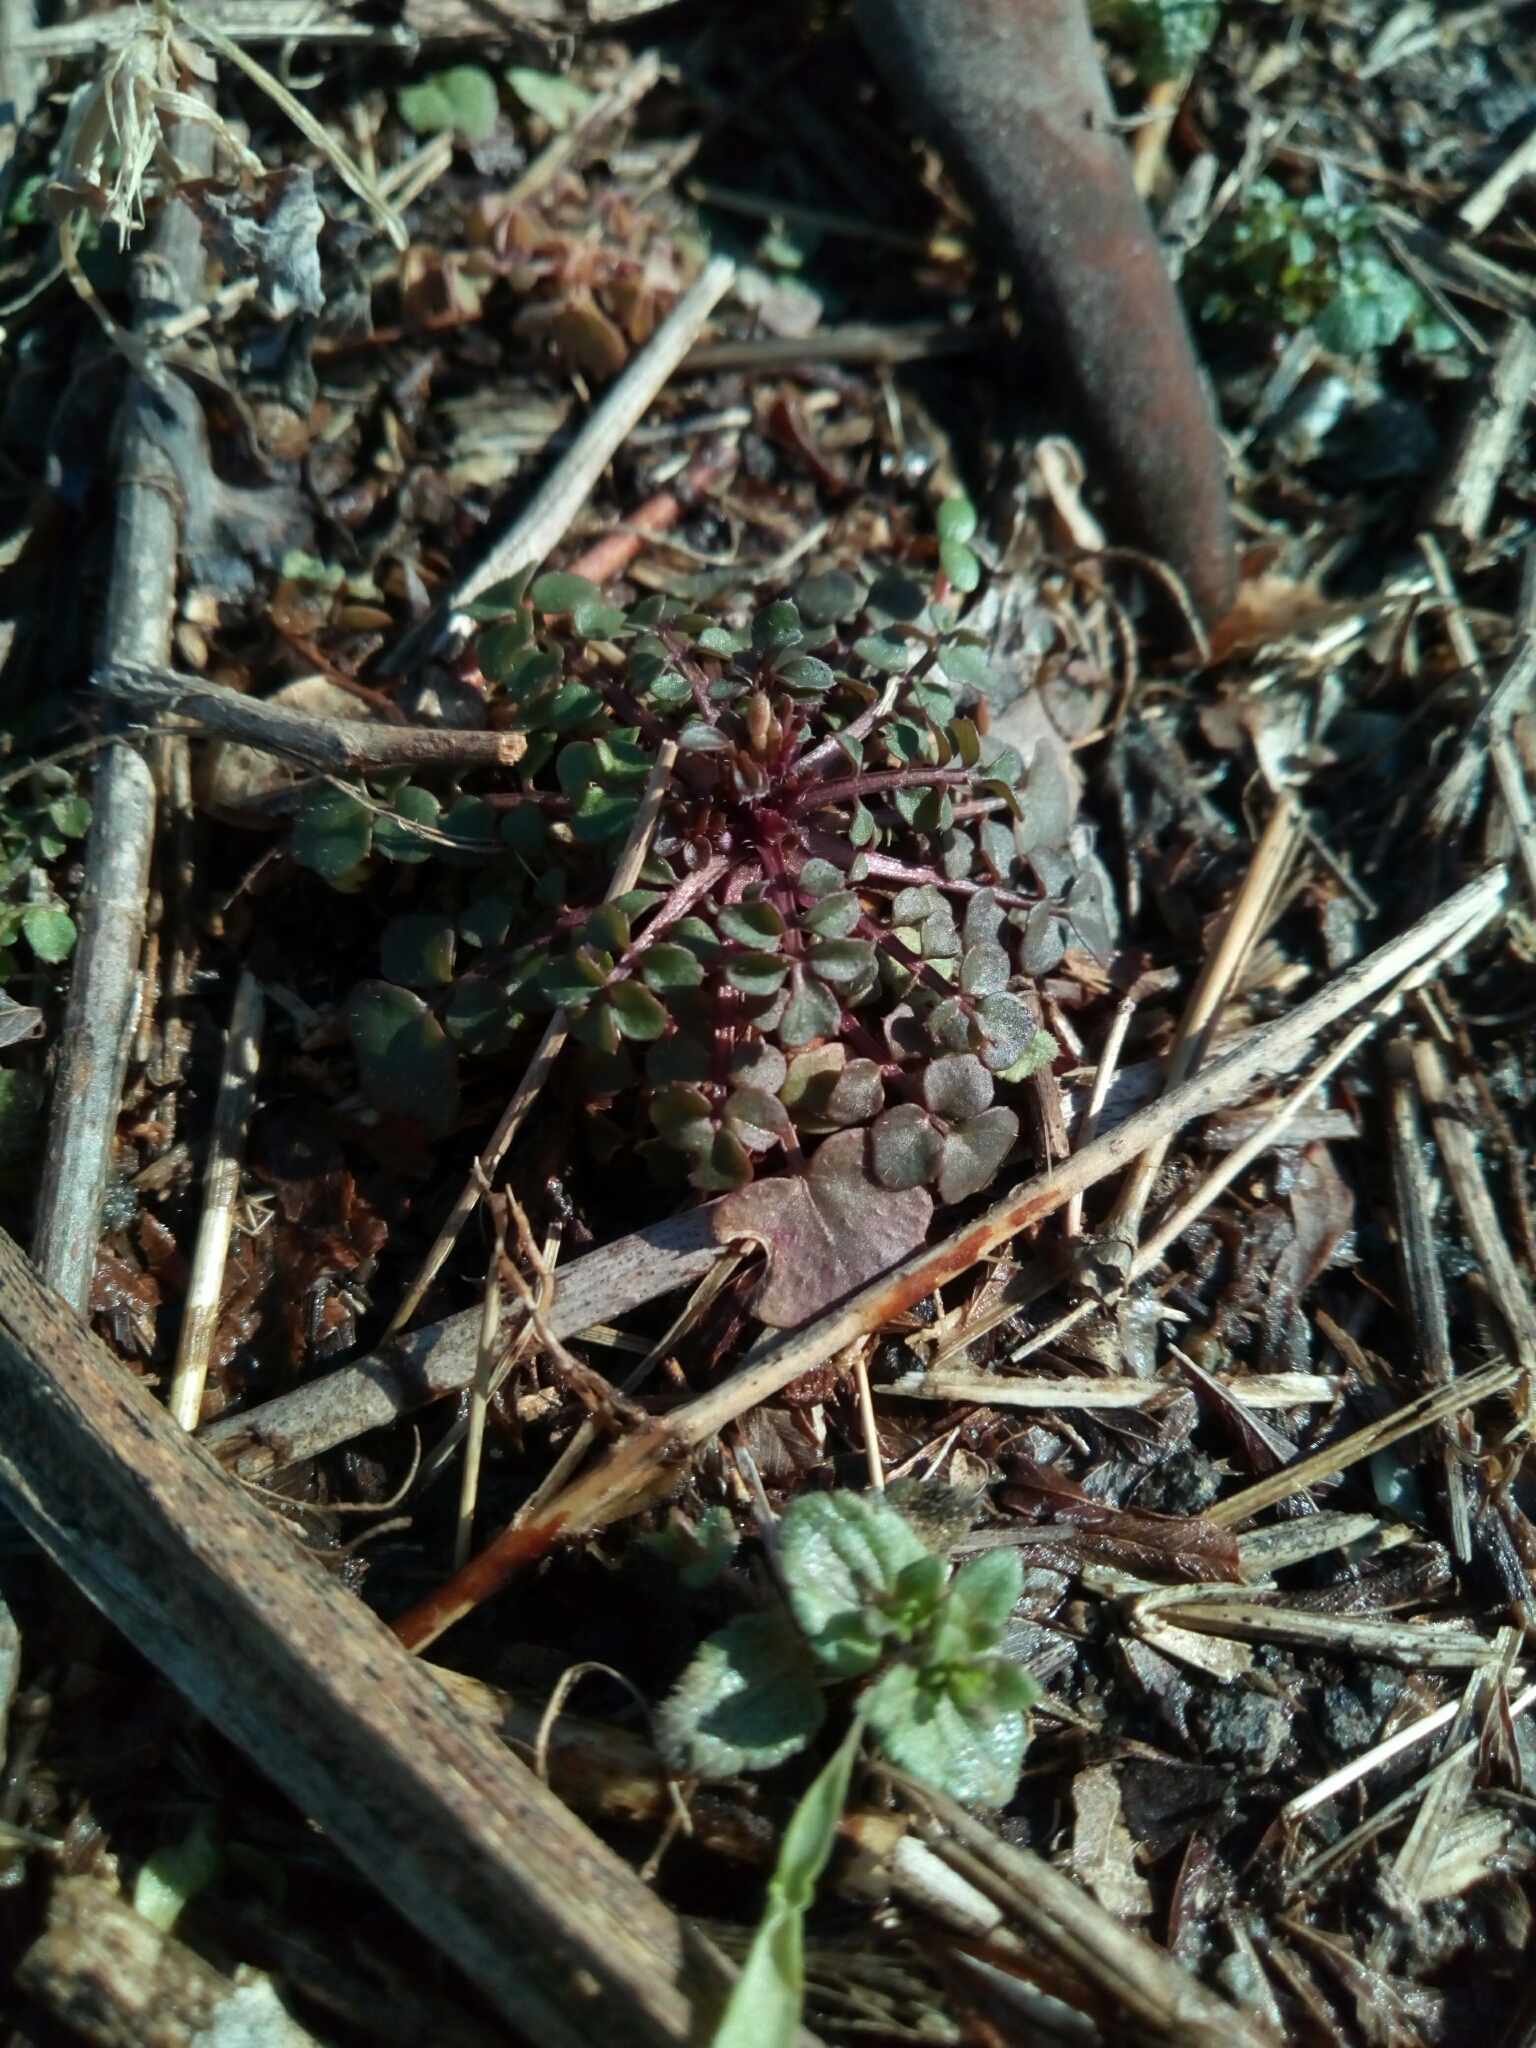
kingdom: Plantae
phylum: Tracheophyta
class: Magnoliopsida
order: Brassicales
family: Brassicaceae
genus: Cardamine
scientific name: Cardamine hirsuta
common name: Hairy bittercress
